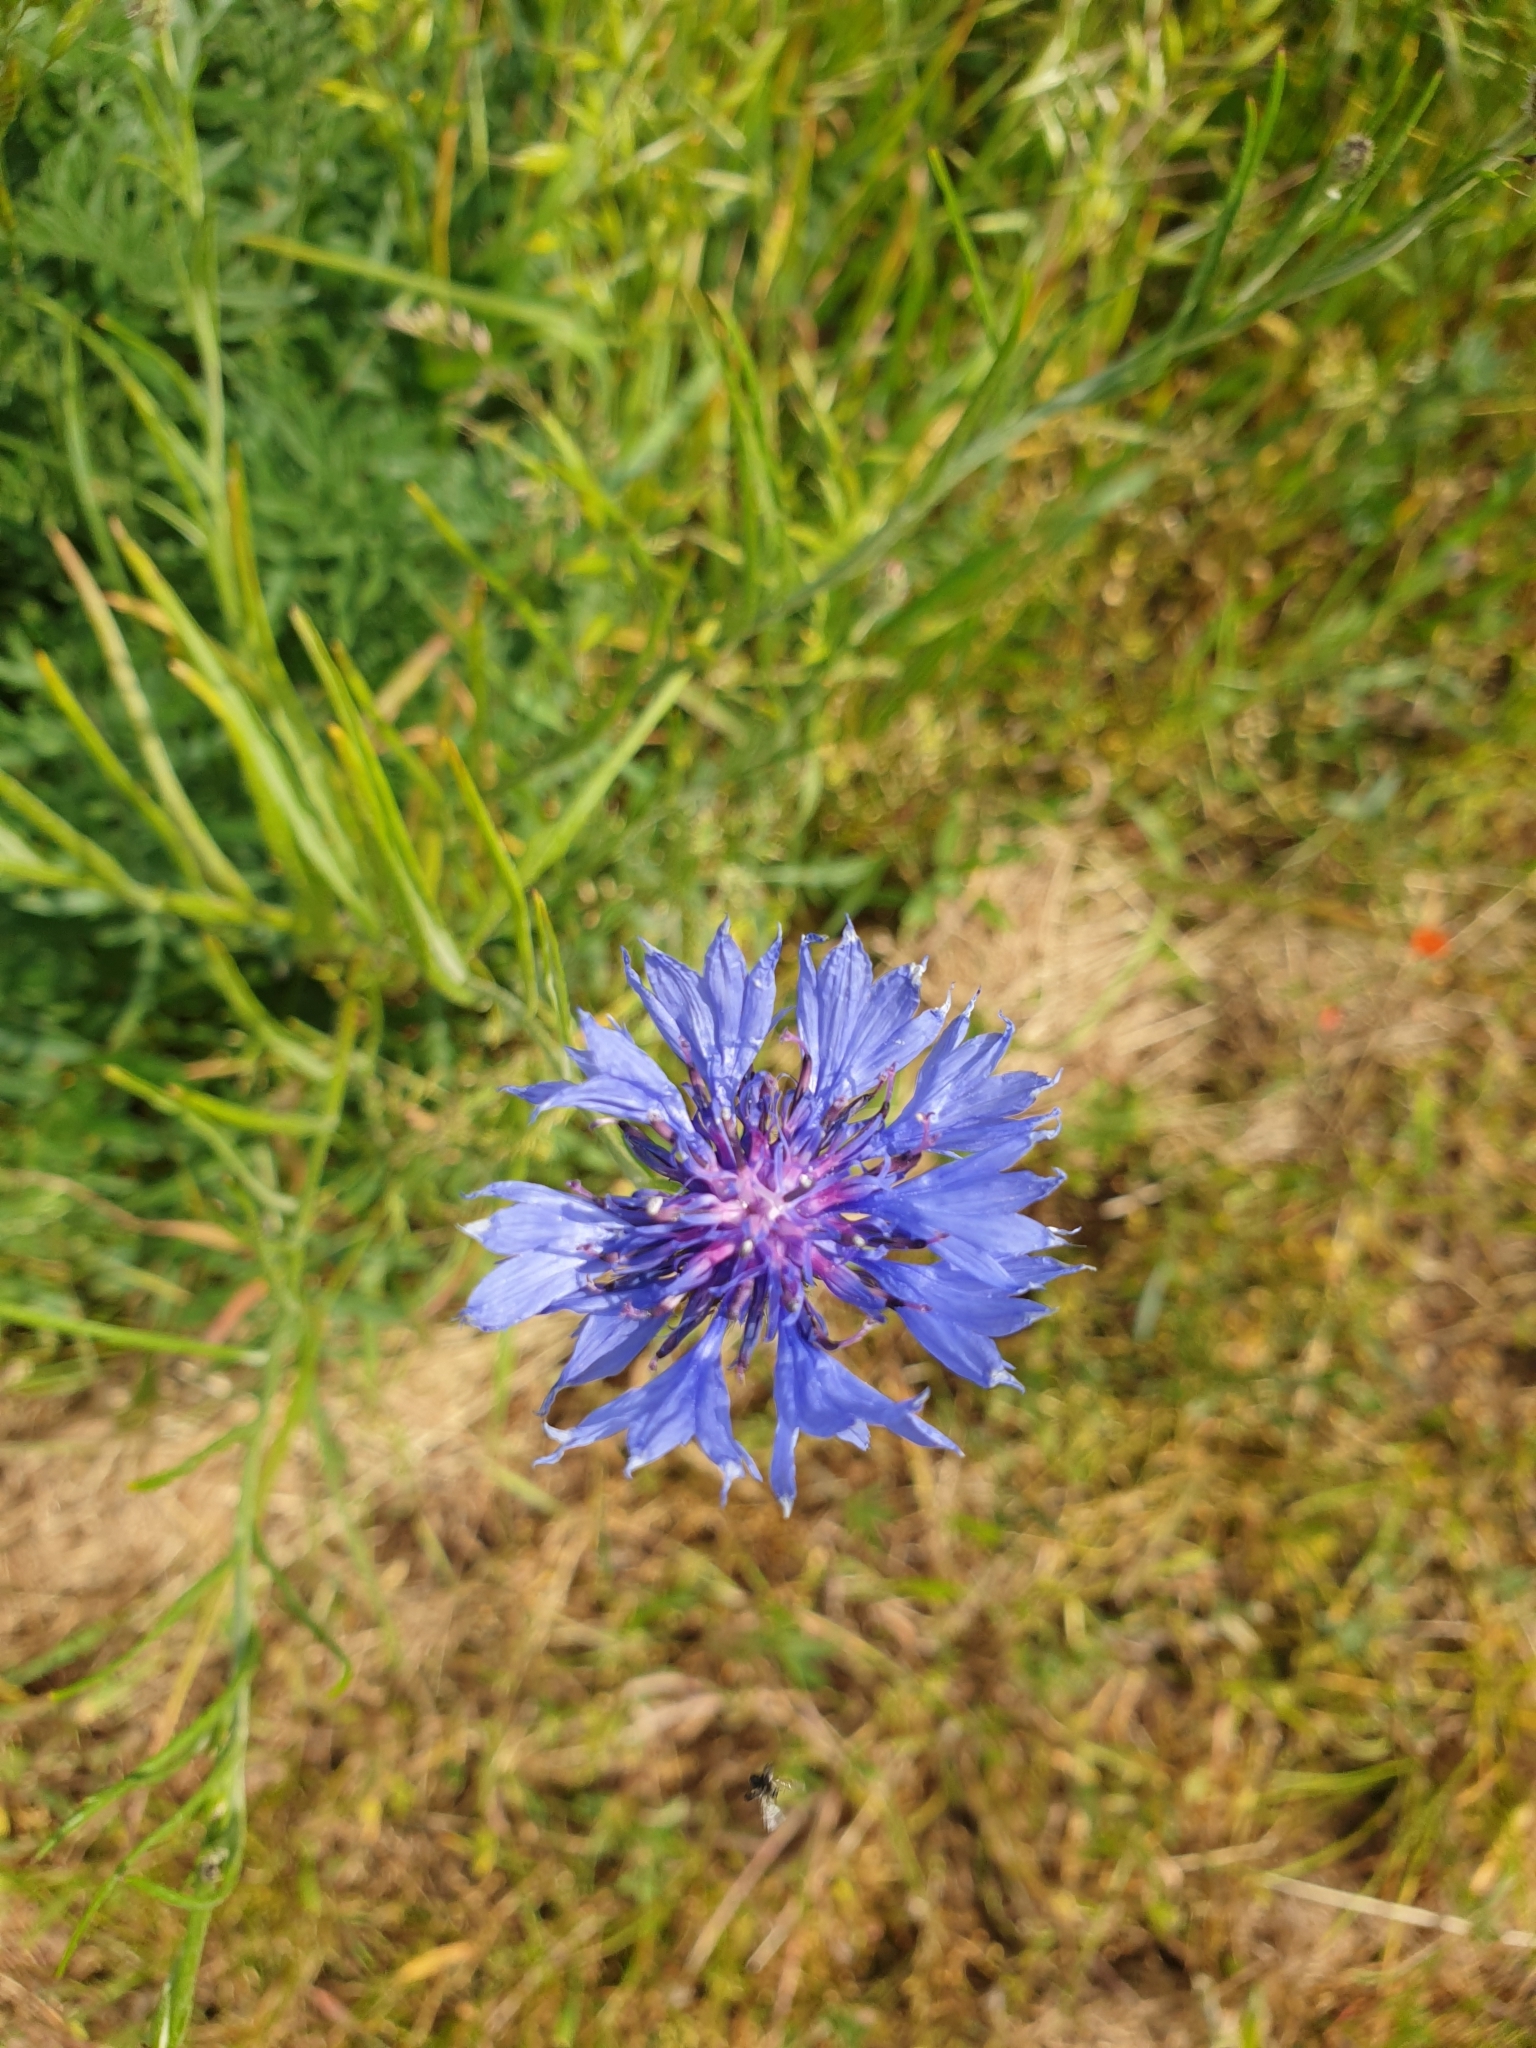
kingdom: Plantae
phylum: Tracheophyta
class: Magnoliopsida
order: Asterales
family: Asteraceae
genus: Centaurea
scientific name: Centaurea cyanus
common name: Cornflower
